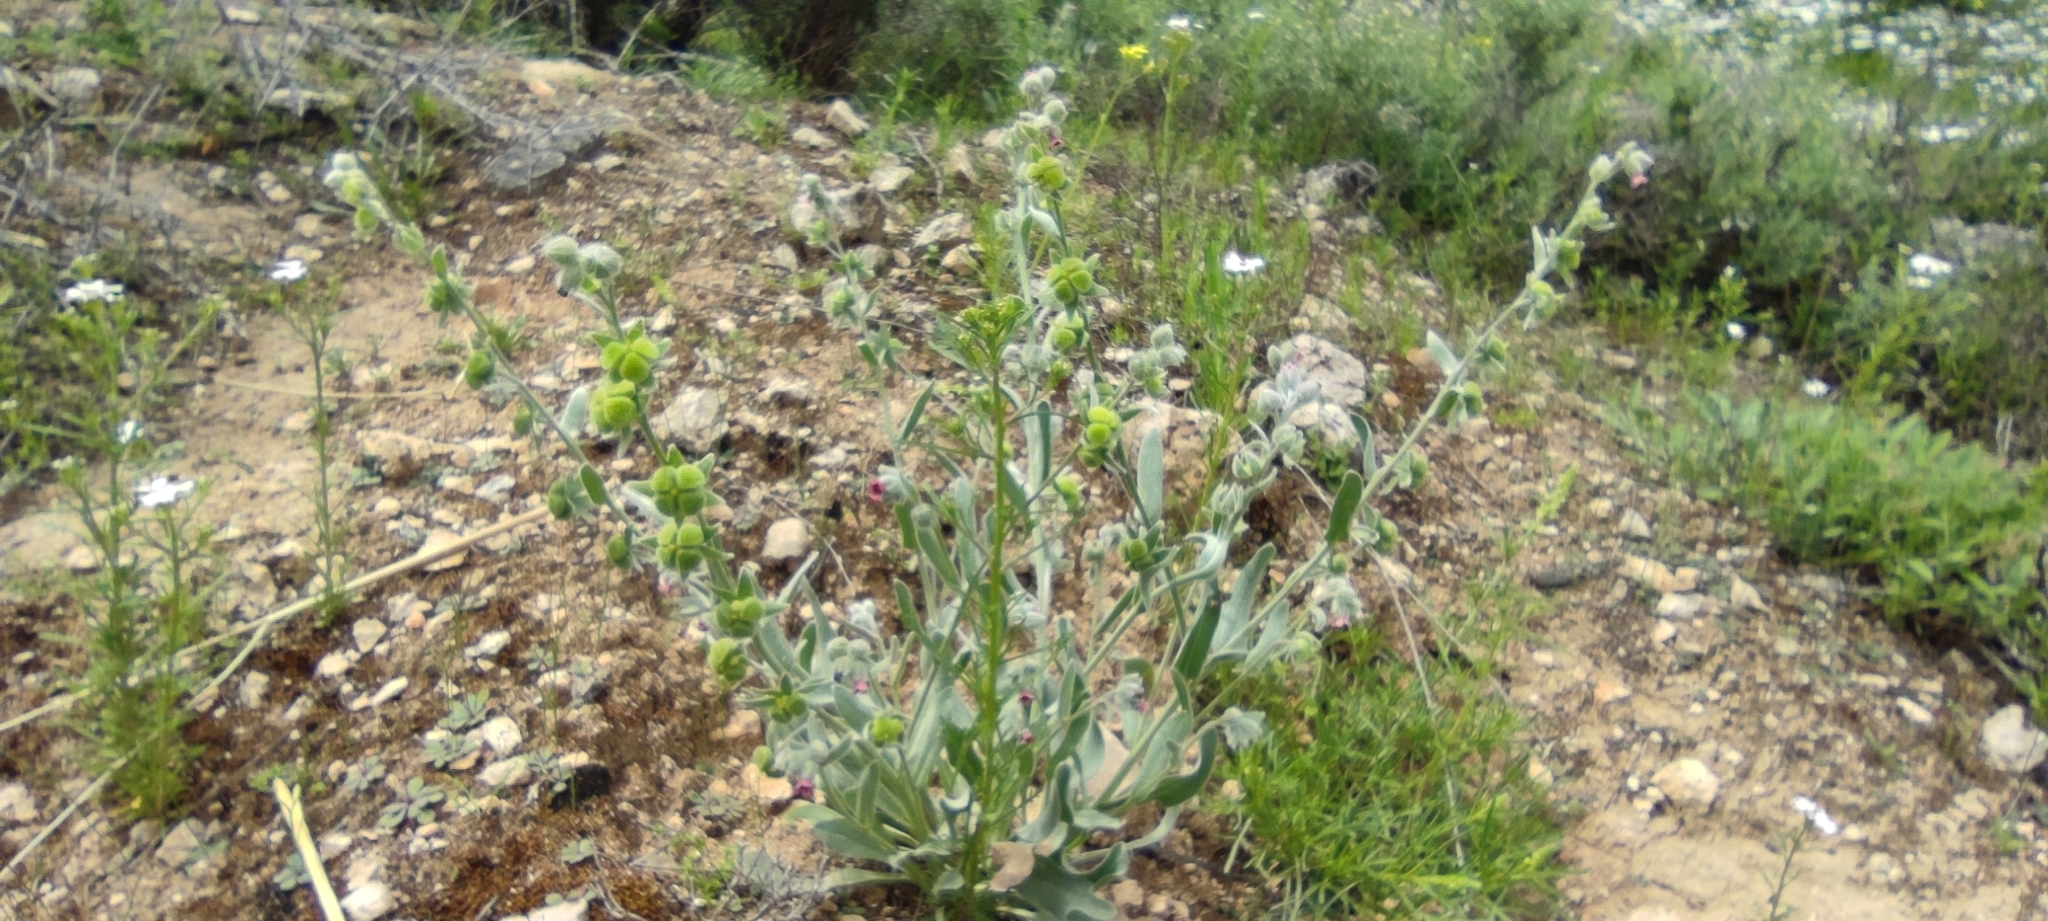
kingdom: Plantae
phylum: Tracheophyta
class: Magnoliopsida
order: Boraginales
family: Boraginaceae
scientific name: Boraginaceae
